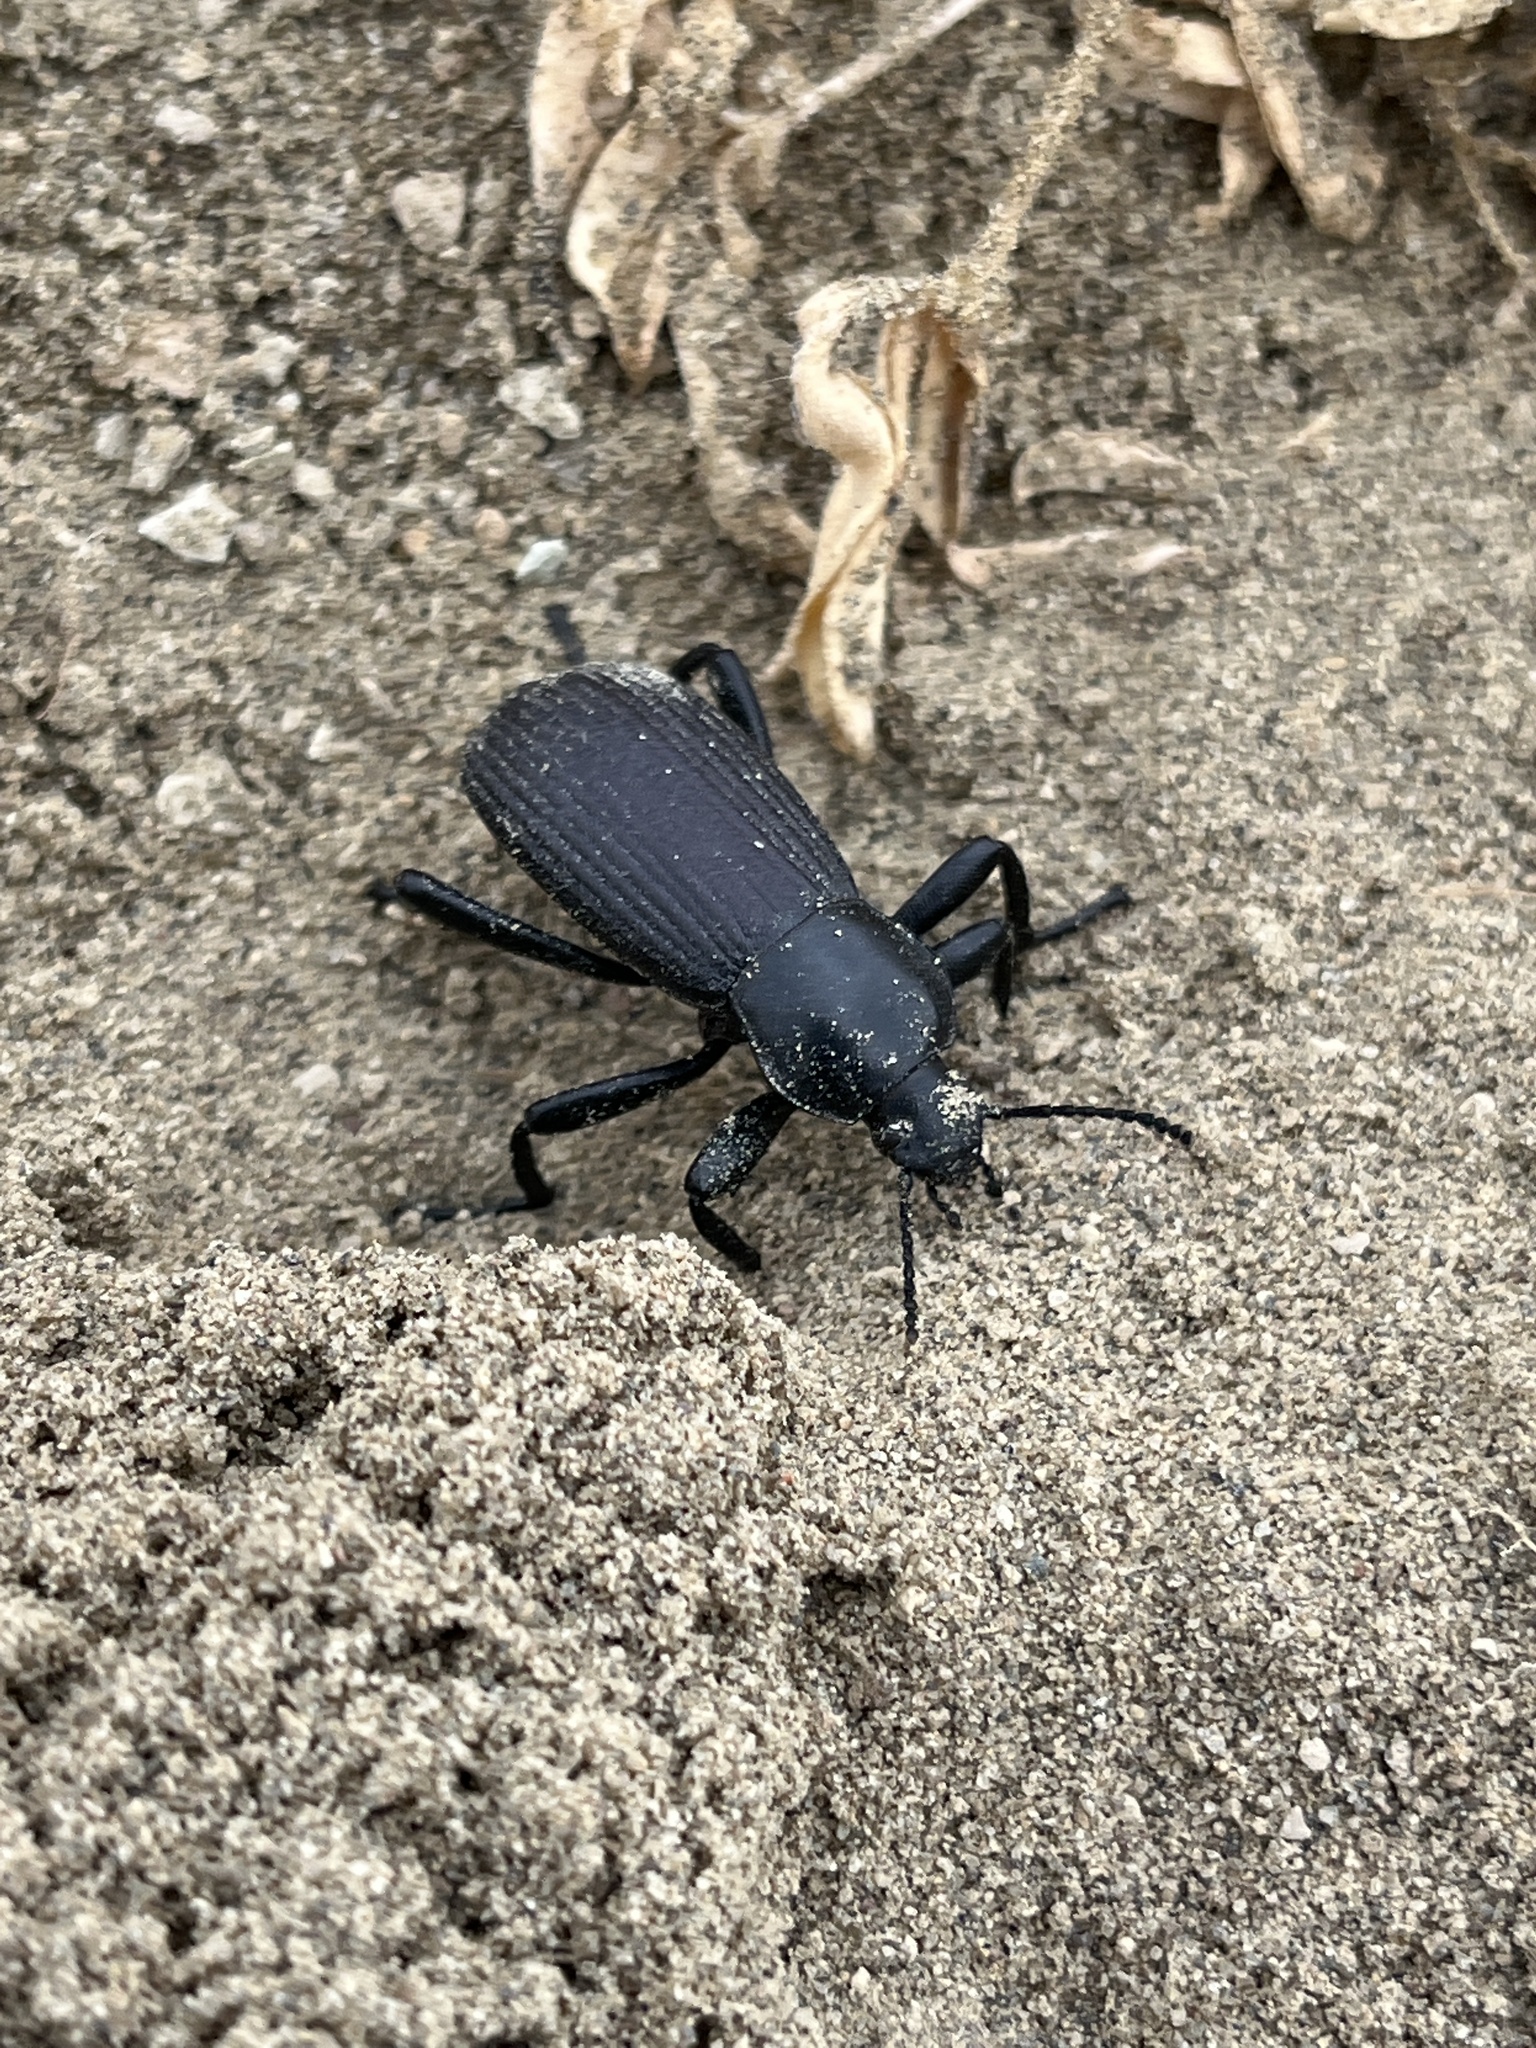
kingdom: Animalia
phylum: Arthropoda
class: Insecta
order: Coleoptera
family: Tenebrionidae
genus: Eleodes
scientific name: Eleodes obscura
